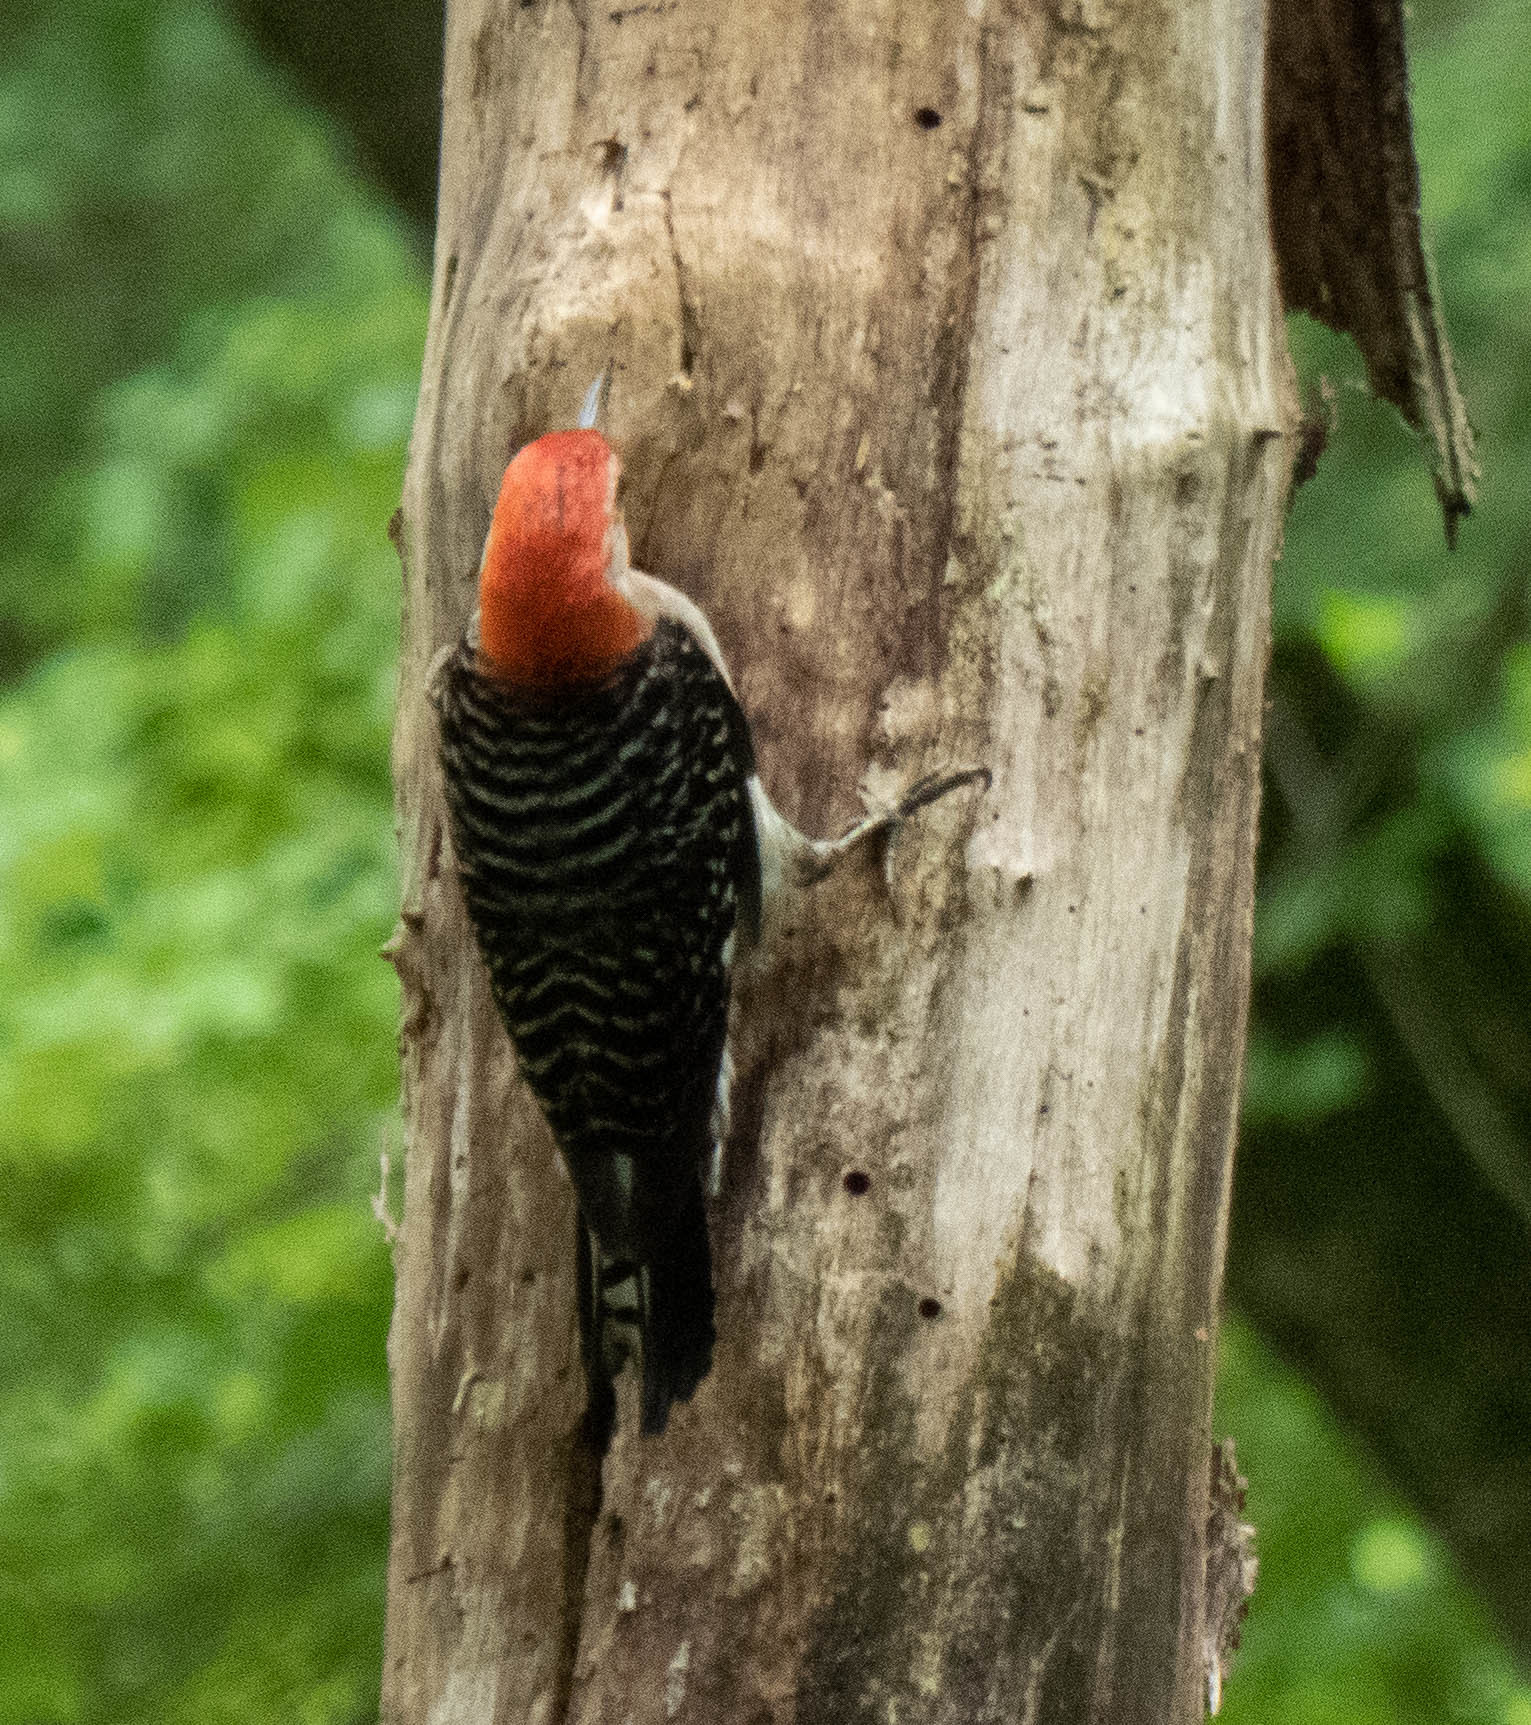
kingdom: Animalia
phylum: Chordata
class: Aves
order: Piciformes
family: Picidae
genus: Melanerpes
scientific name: Melanerpes carolinus
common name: Red-bellied woodpecker
